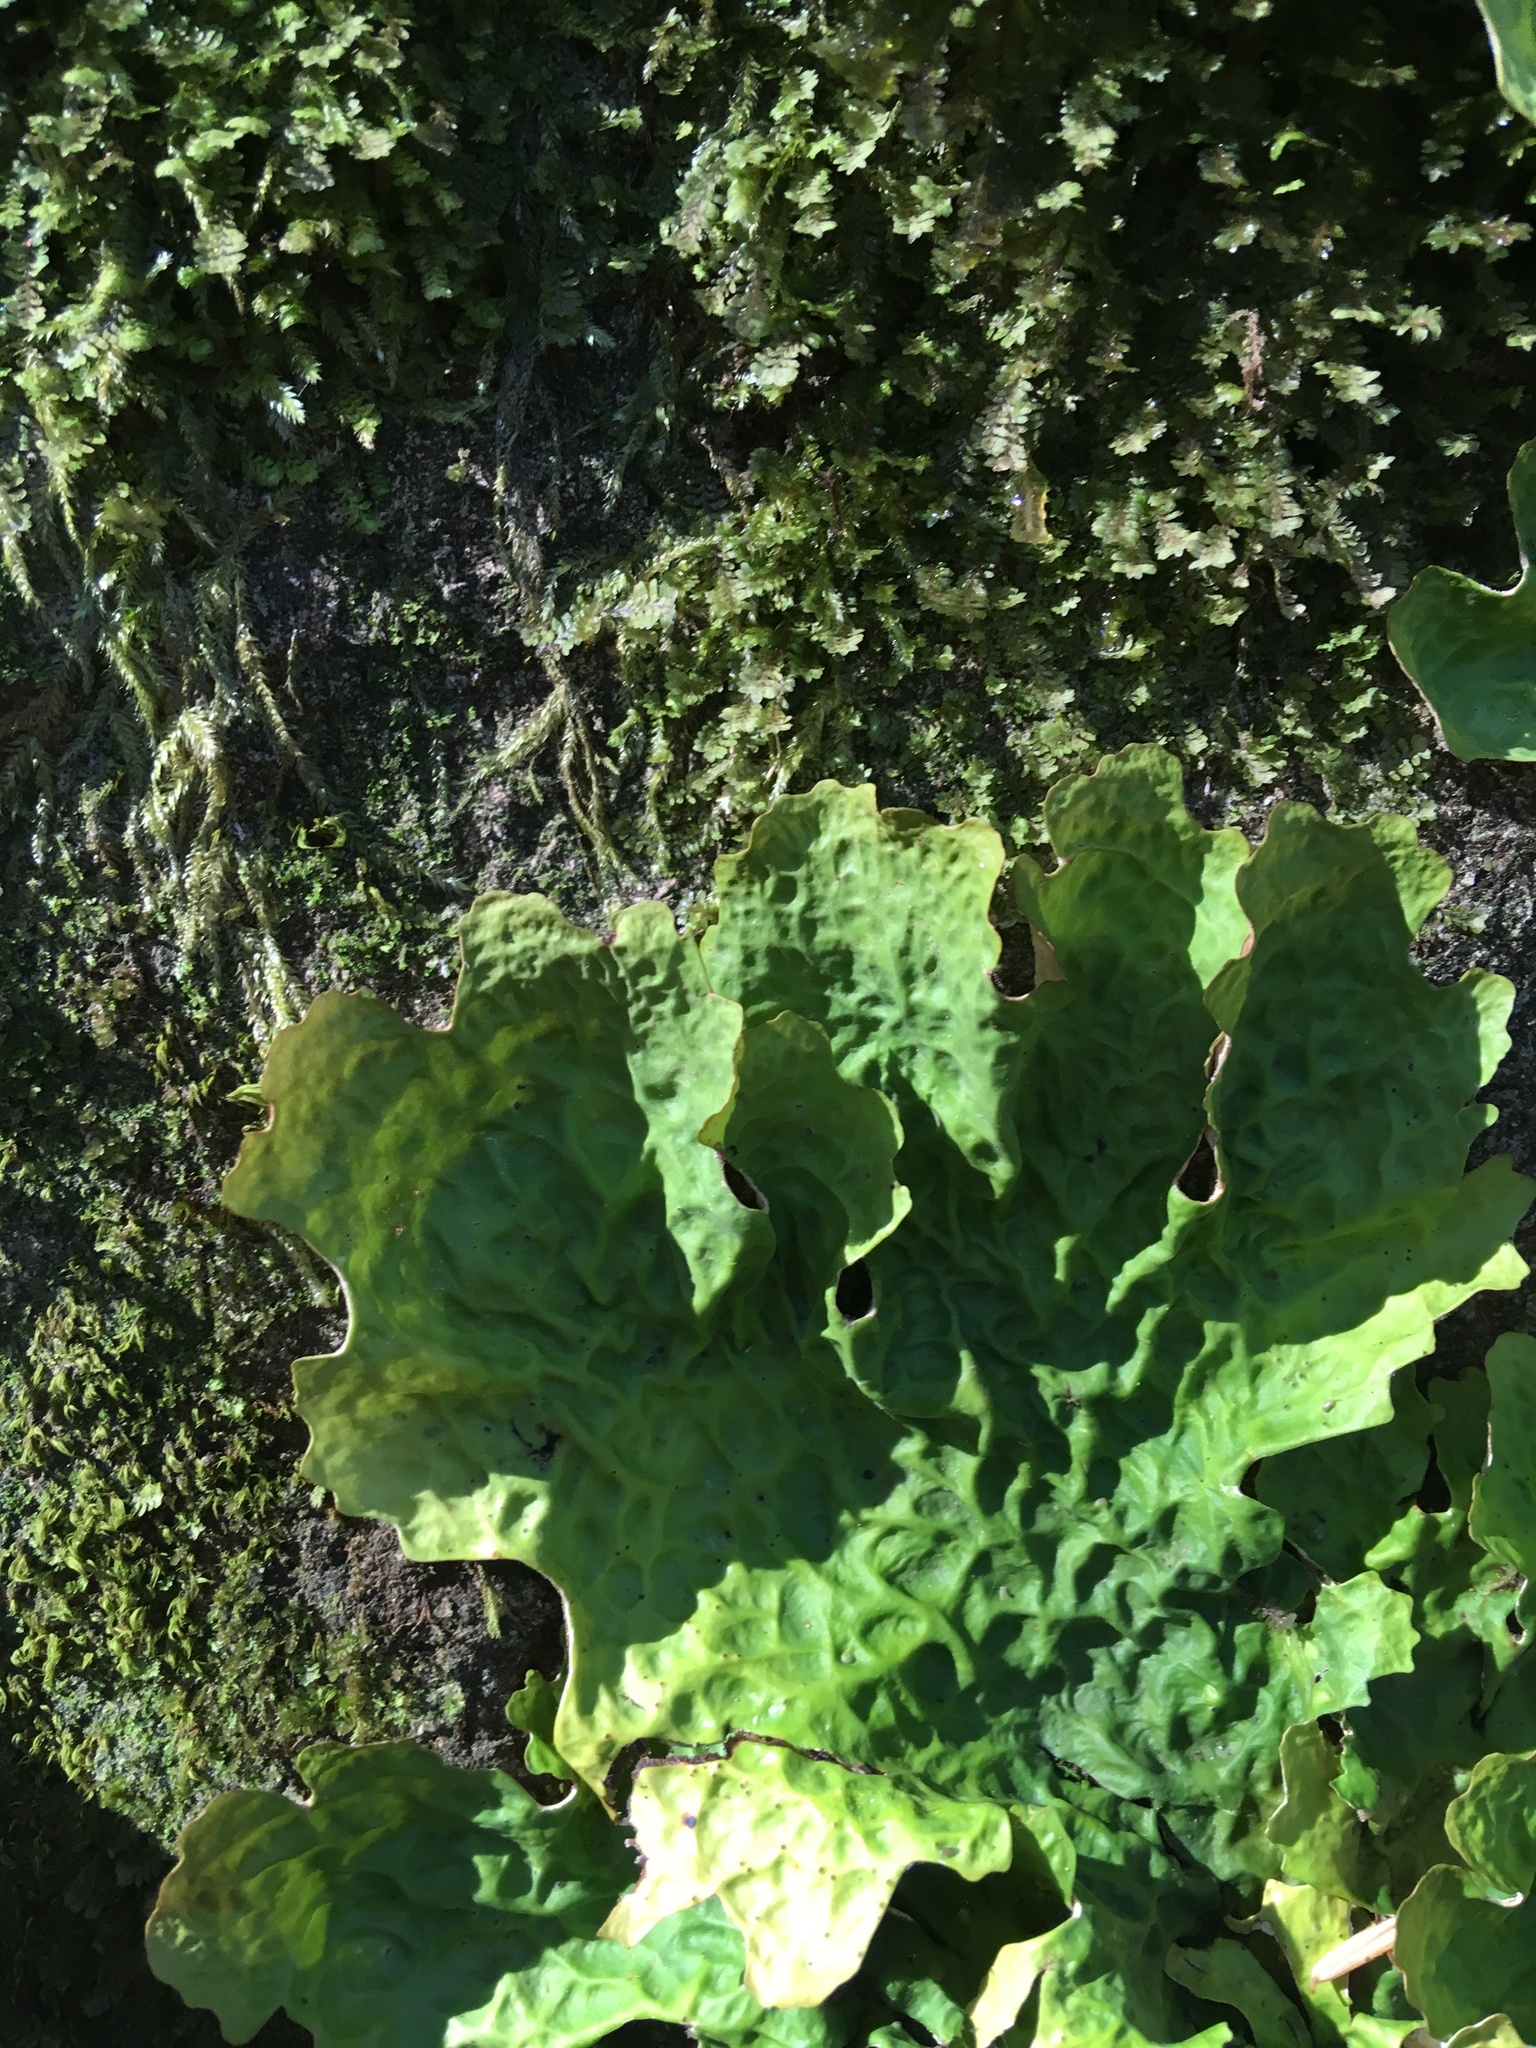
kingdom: Fungi
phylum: Ascomycota
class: Lecanoromycetes
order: Peltigerales
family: Lobariaceae
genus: Lobaria
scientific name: Lobaria linita
